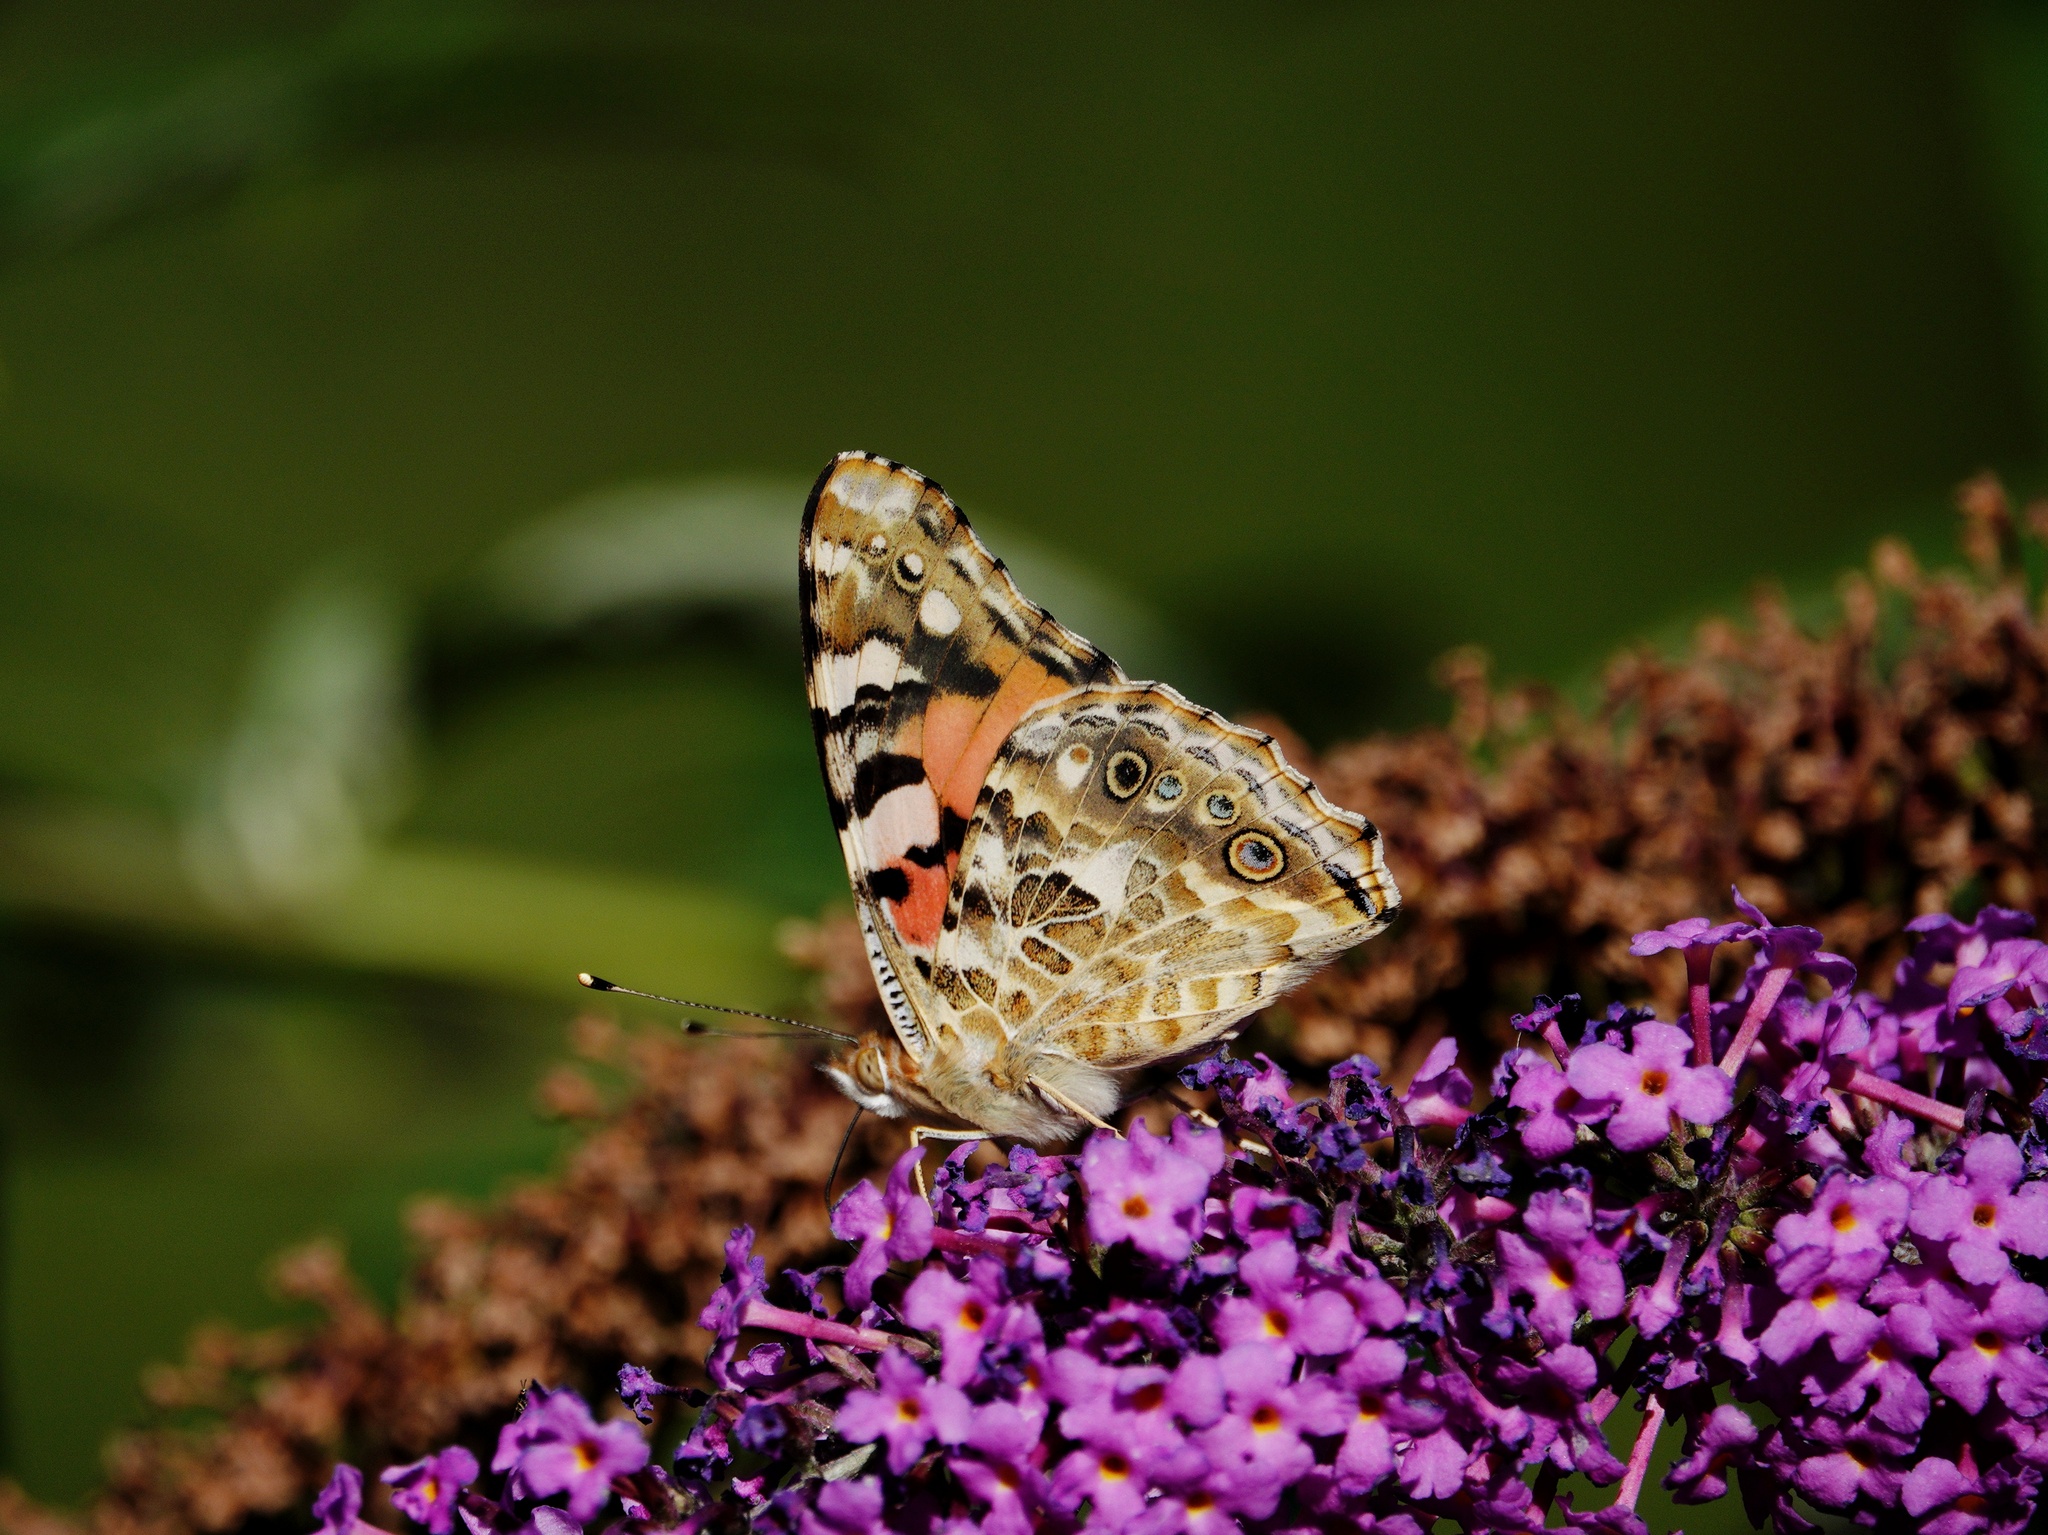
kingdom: Animalia
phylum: Arthropoda
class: Insecta
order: Lepidoptera
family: Nymphalidae
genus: Vanessa
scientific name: Vanessa cardui
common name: Painted lady
